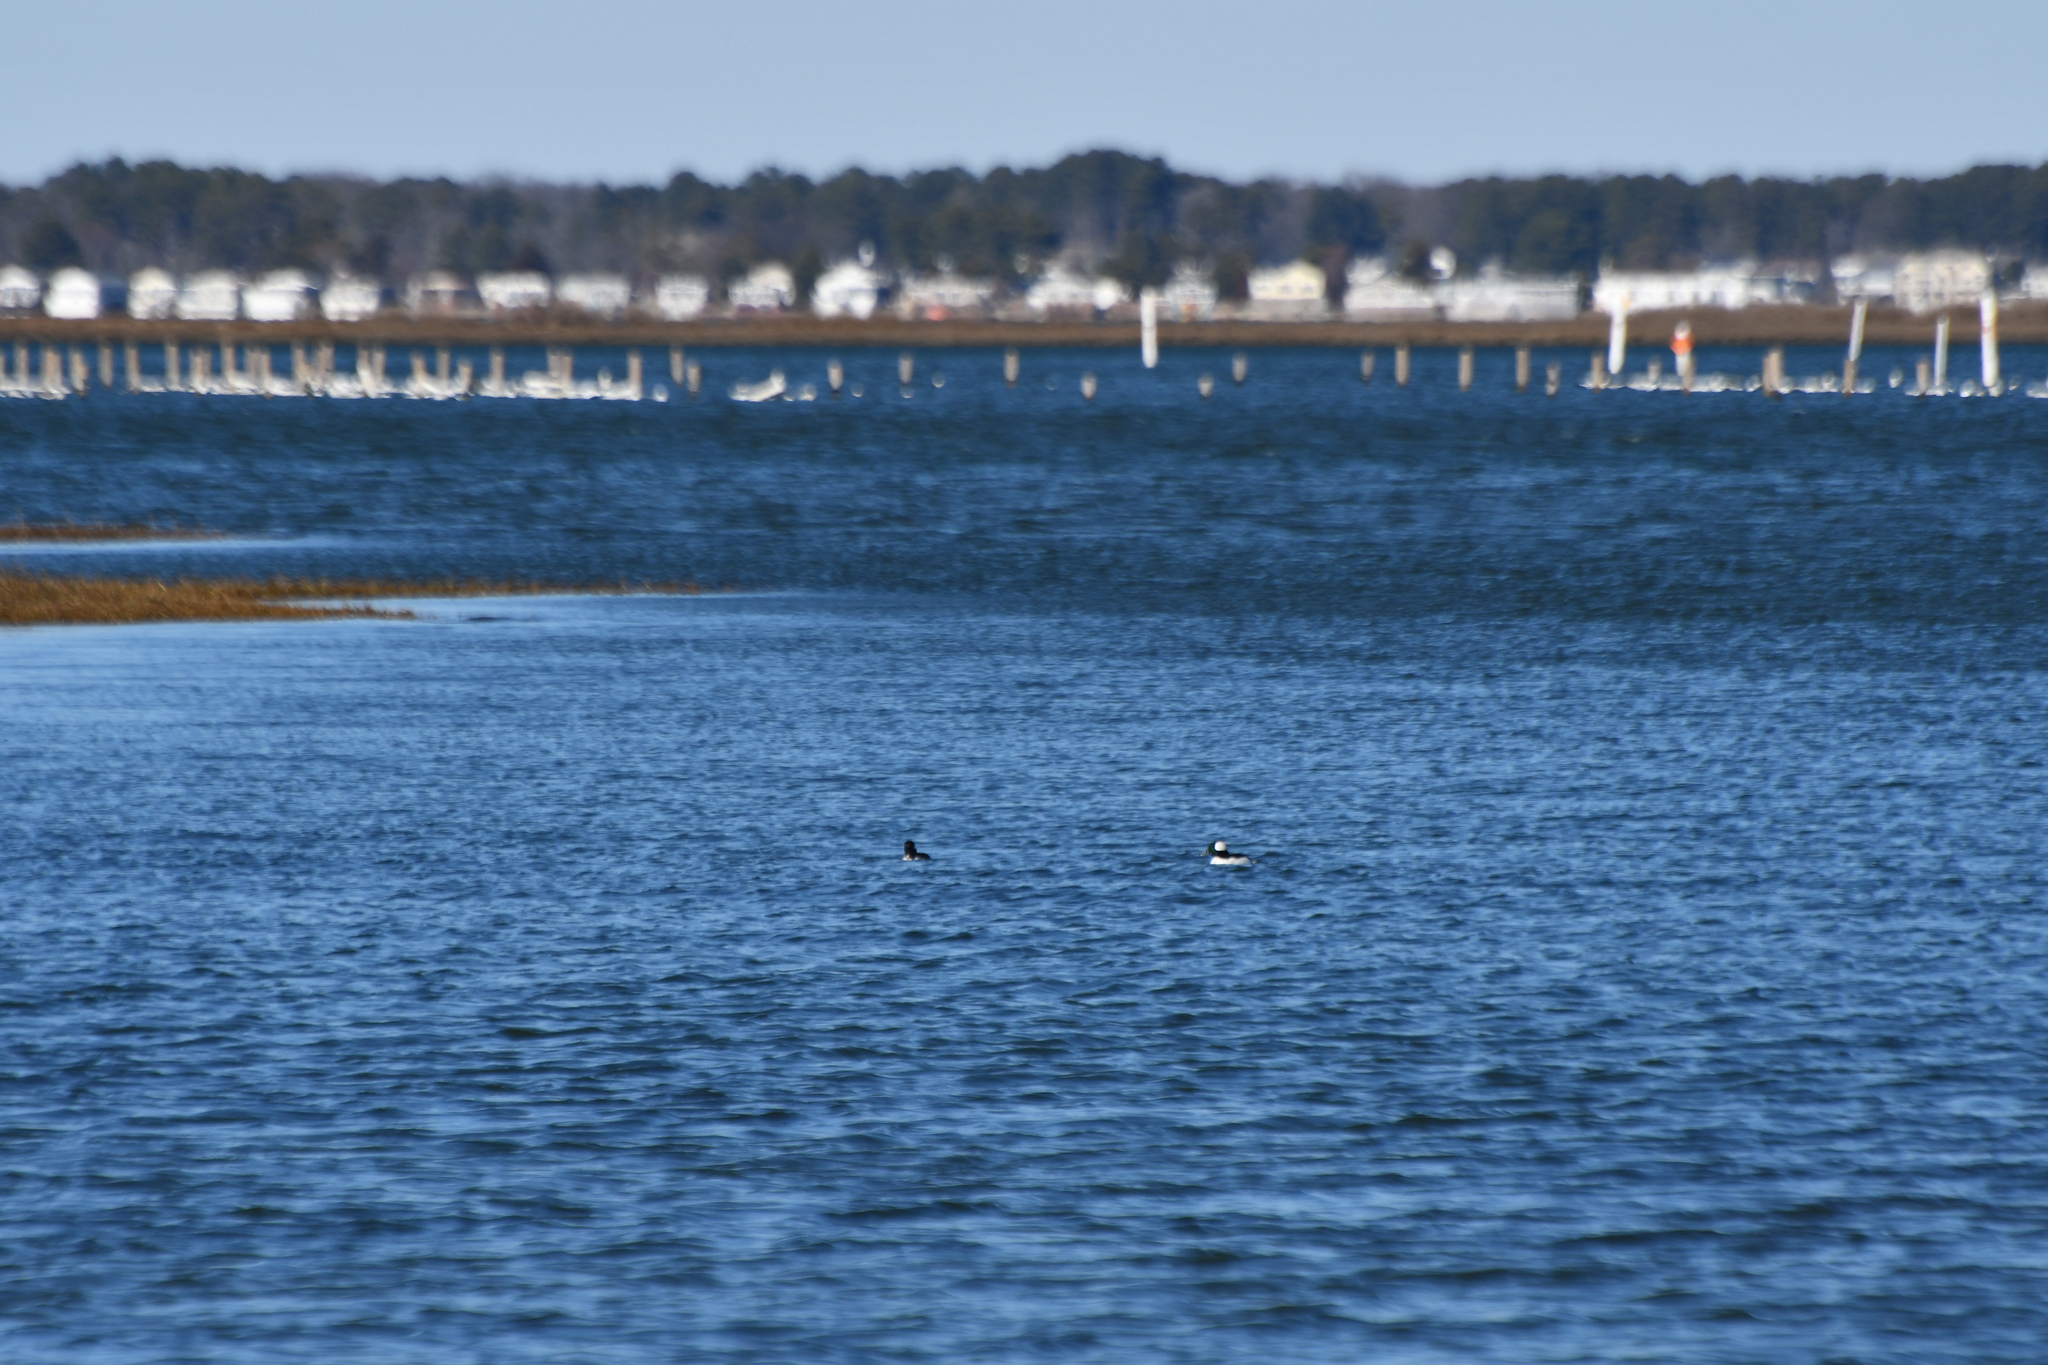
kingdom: Animalia
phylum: Chordata
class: Aves
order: Anseriformes
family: Anatidae
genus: Bucephala
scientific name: Bucephala albeola
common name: Bufflehead
